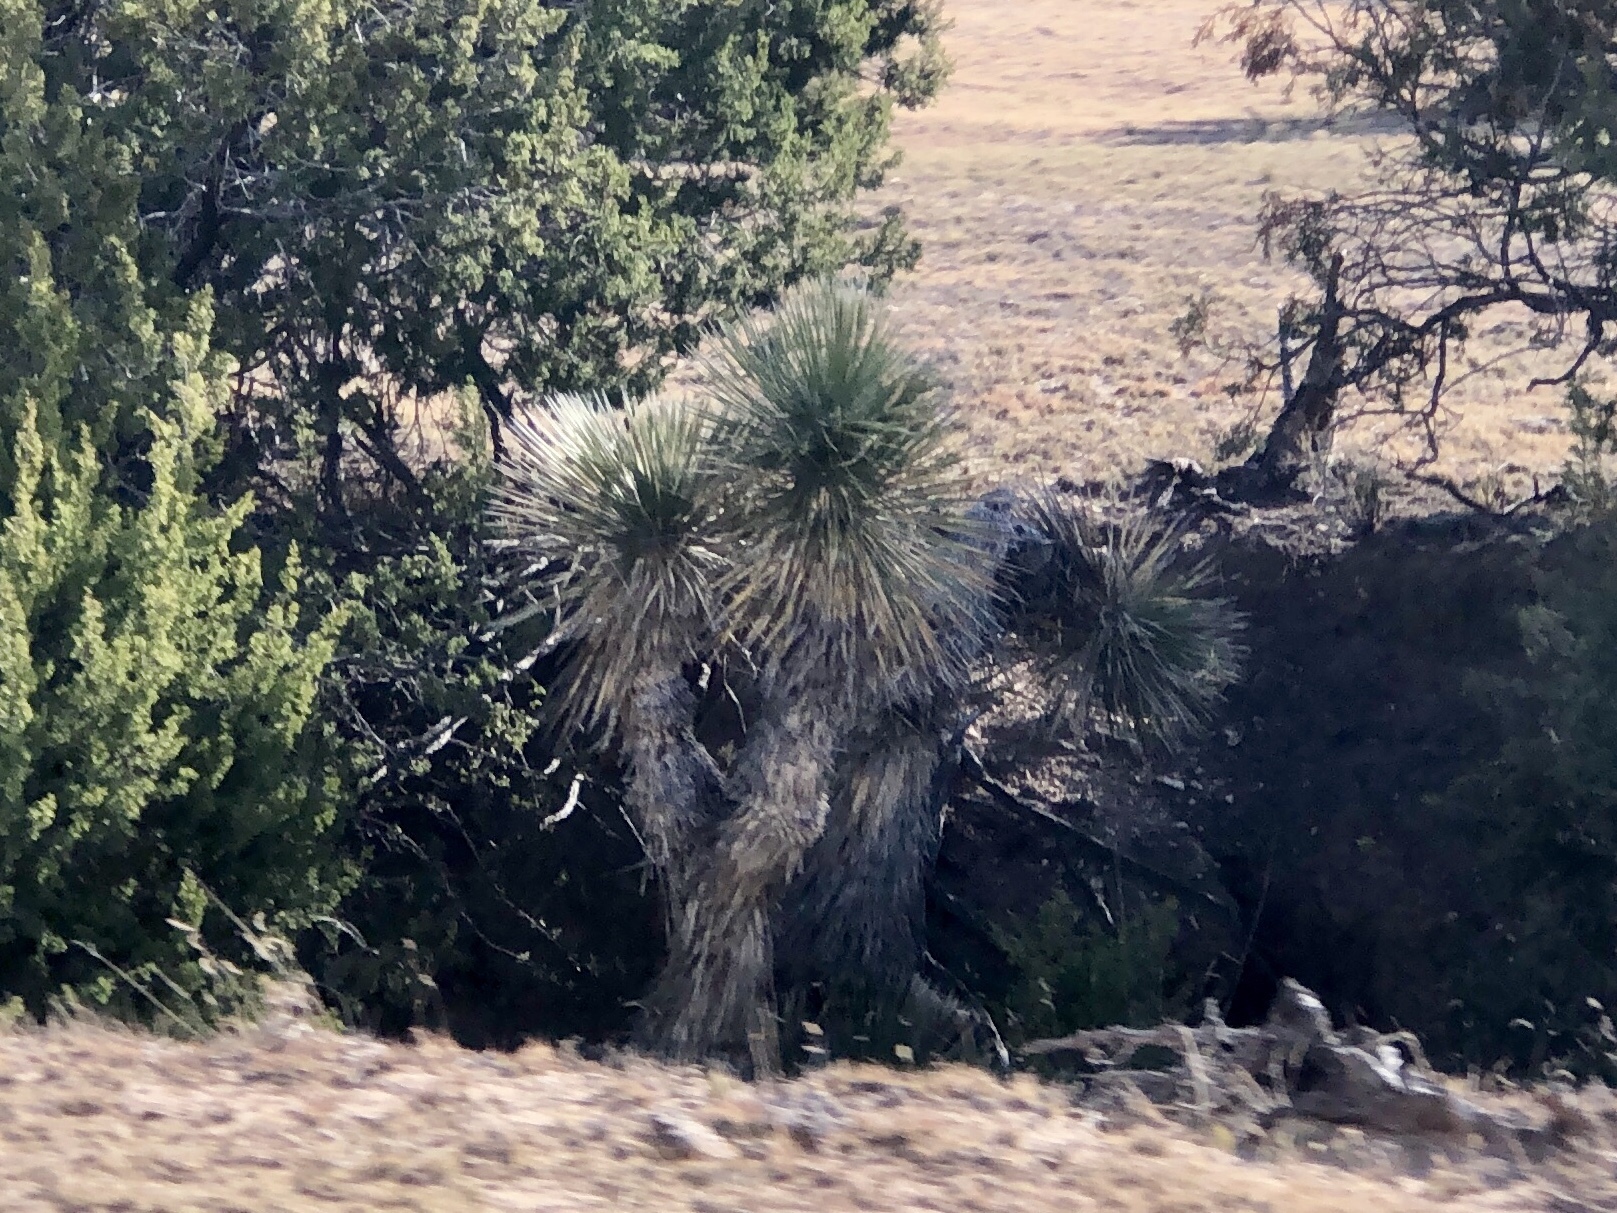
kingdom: Plantae
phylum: Tracheophyta
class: Liliopsida
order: Asparagales
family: Asparagaceae
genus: Yucca
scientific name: Yucca elata
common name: Palmella
